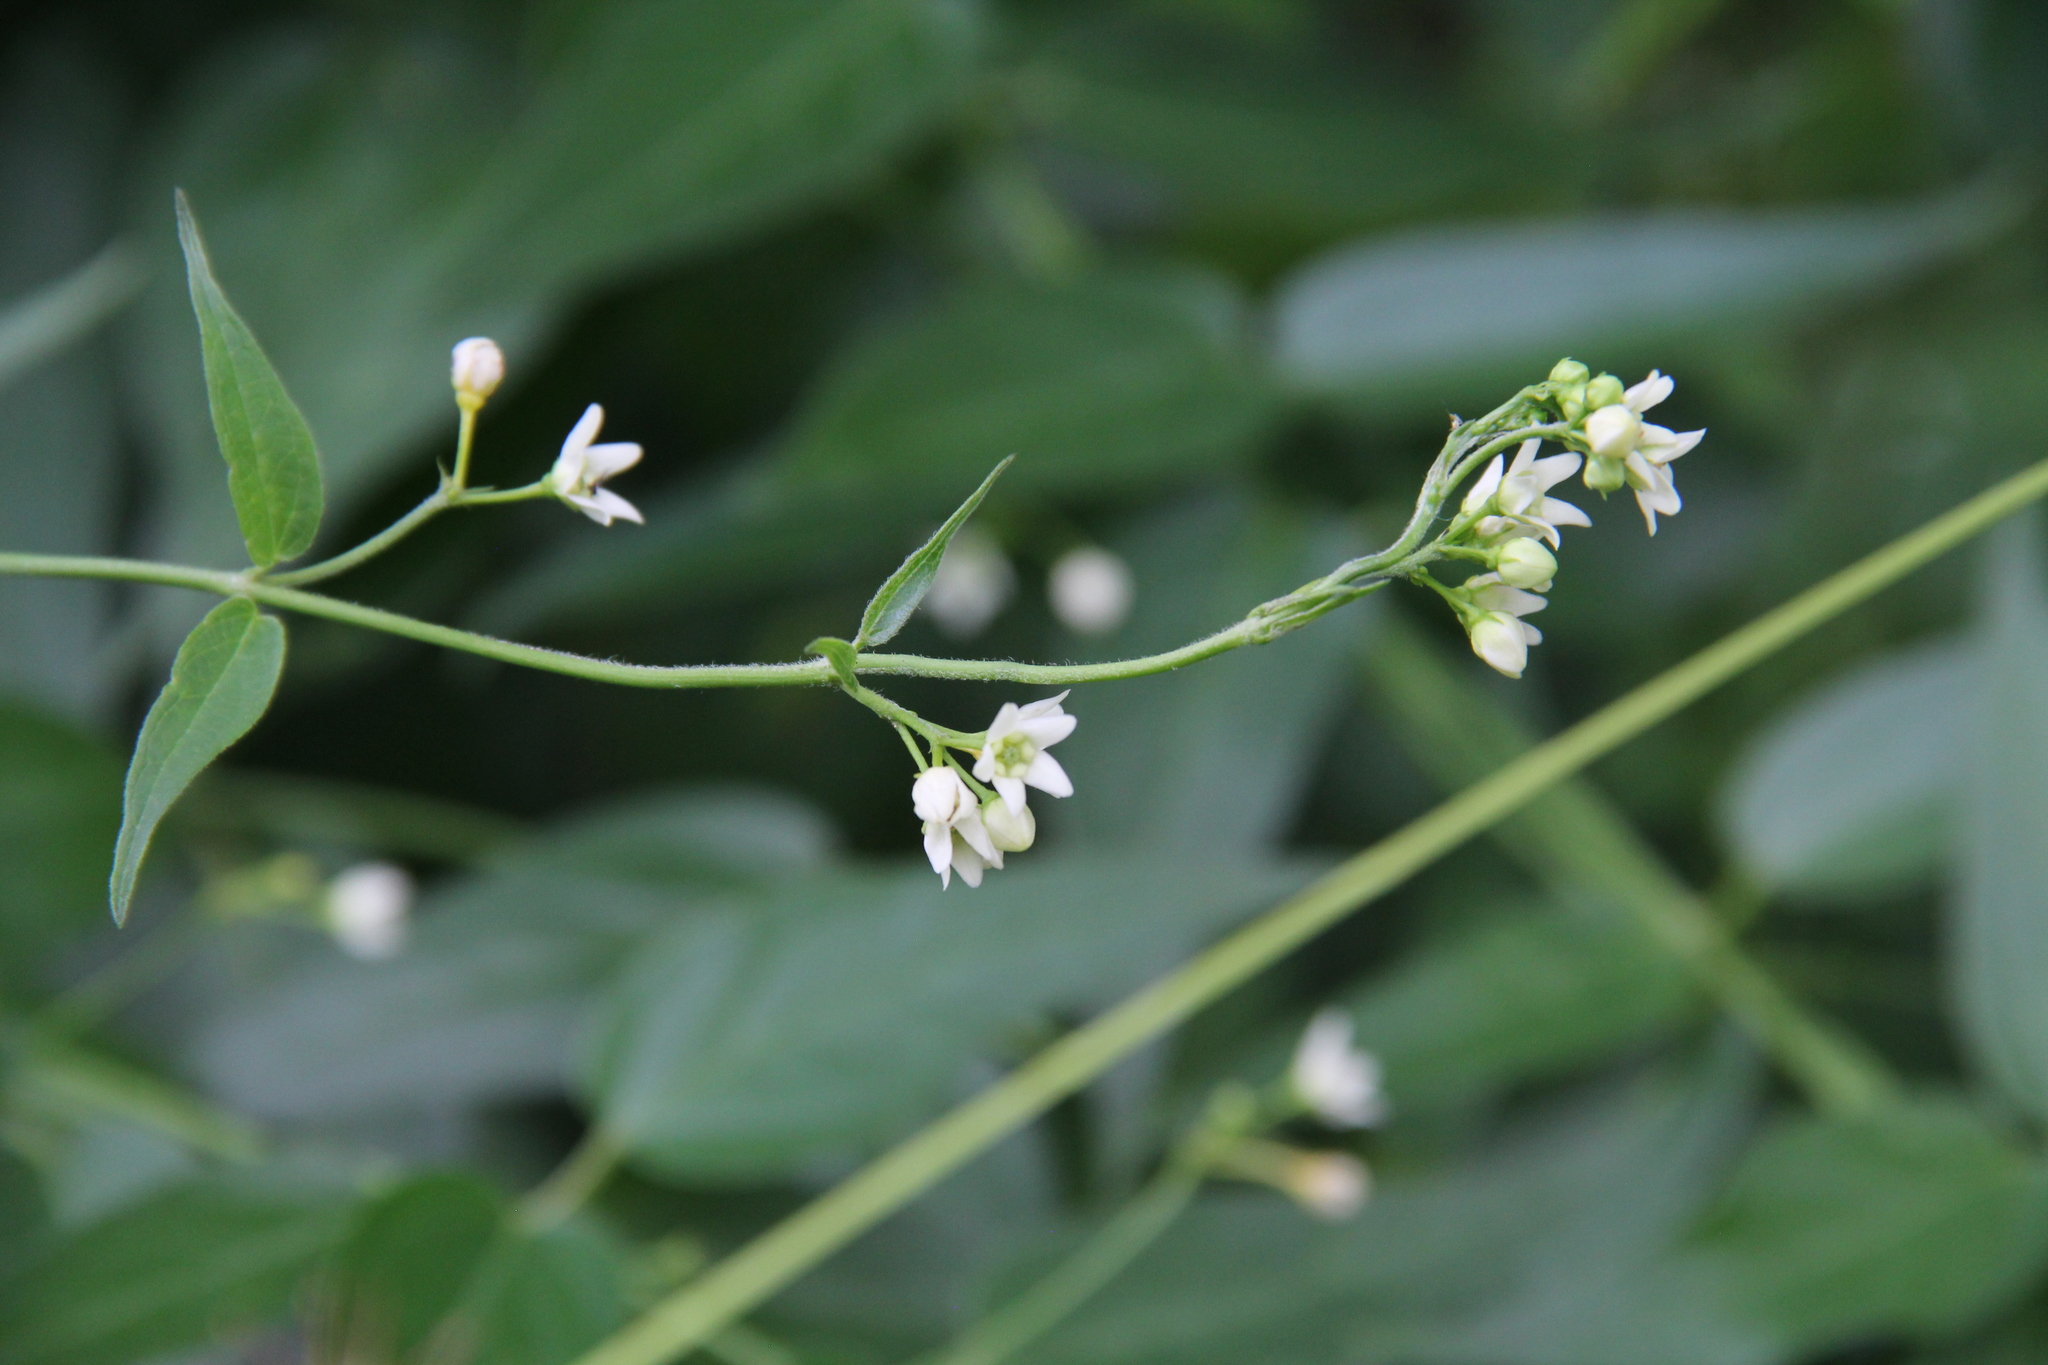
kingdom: Plantae
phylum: Tracheophyta
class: Magnoliopsida
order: Gentianales
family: Apocynaceae
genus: Vincetoxicum
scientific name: Vincetoxicum hirundinaria
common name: White swallowwort
